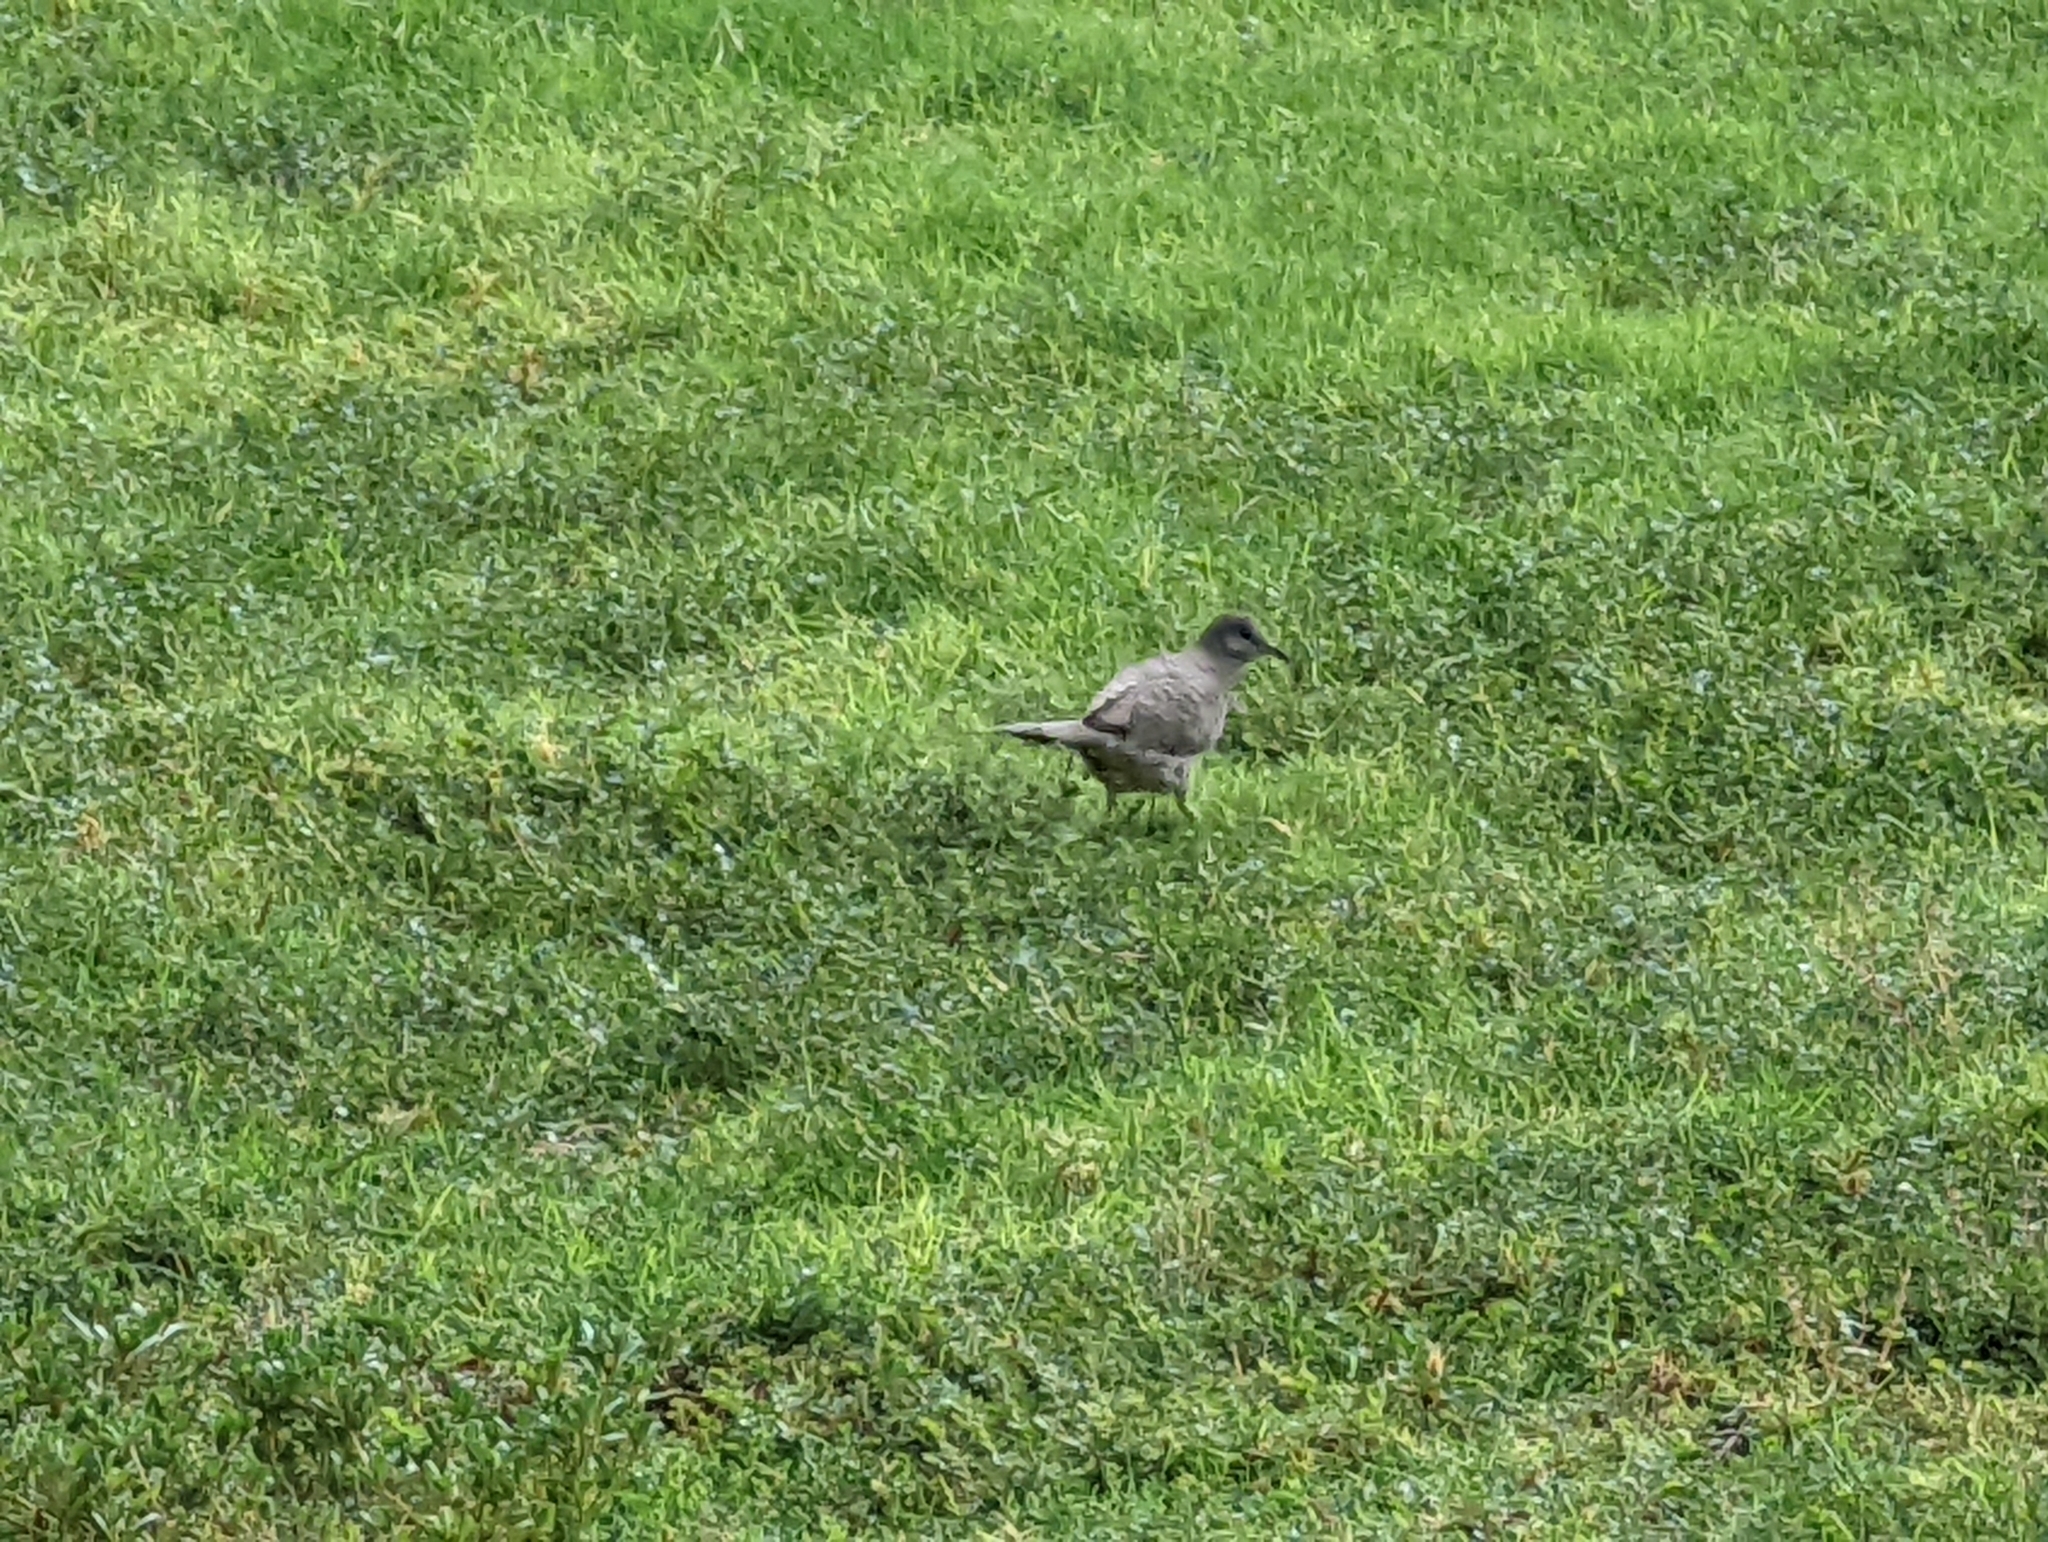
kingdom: Animalia
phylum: Chordata
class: Aves
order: Columbiformes
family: Columbidae
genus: Columbina
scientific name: Columbina inca
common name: Inca dove
